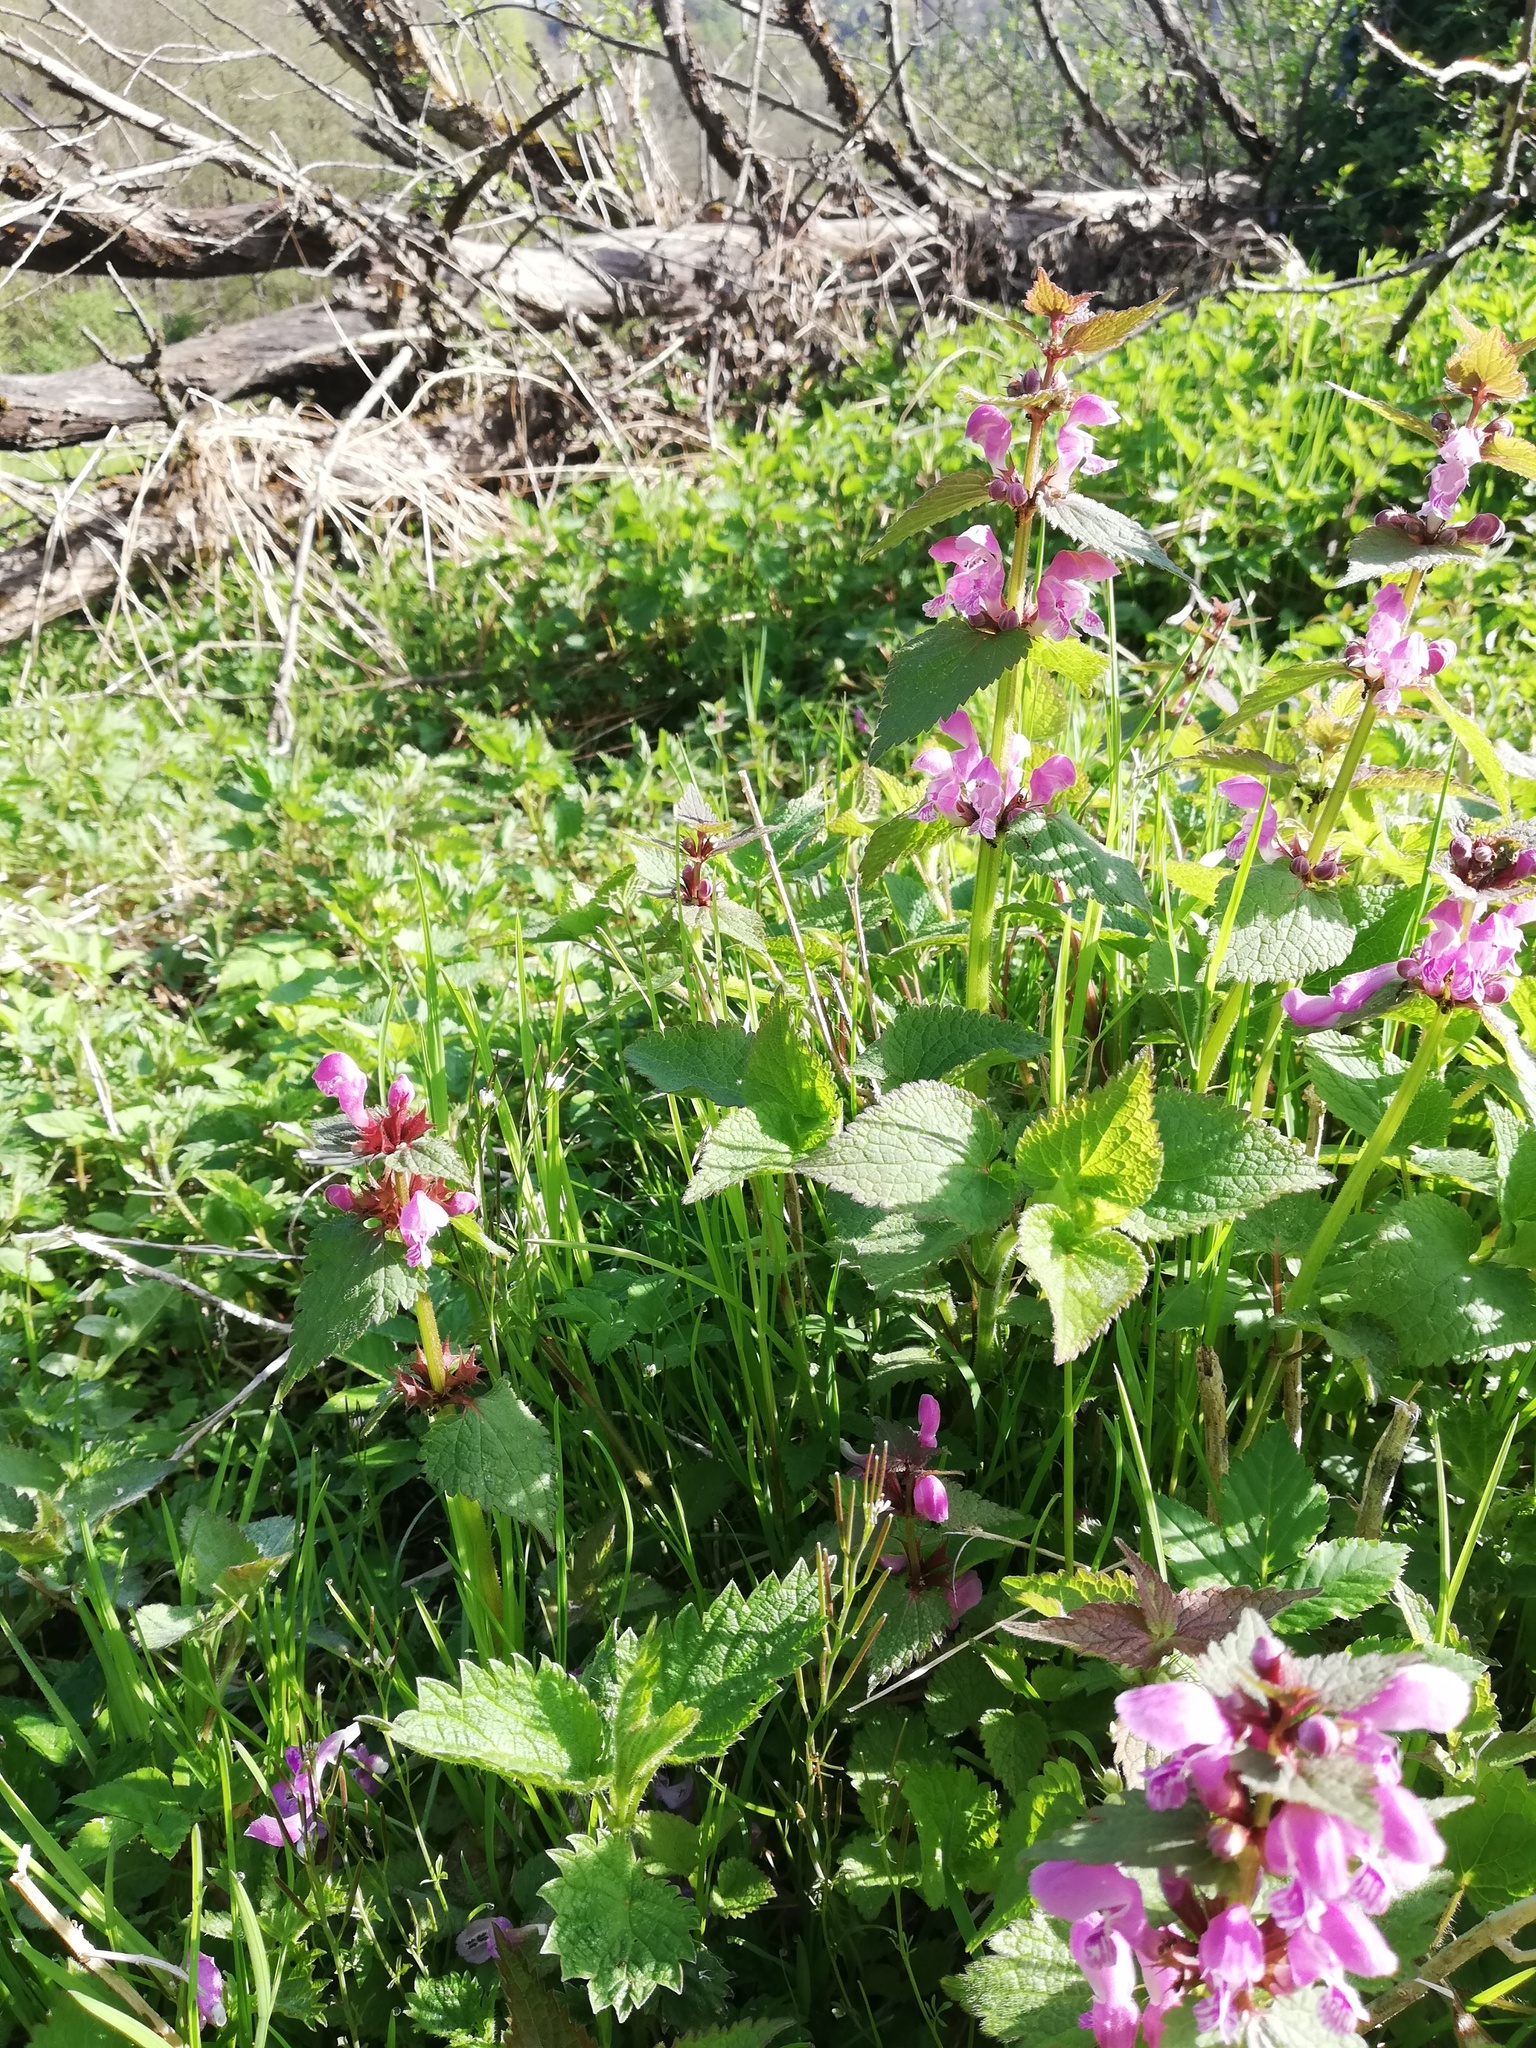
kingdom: Plantae
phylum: Tracheophyta
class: Magnoliopsida
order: Lamiales
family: Lamiaceae
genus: Lamium
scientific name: Lamium maculatum
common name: Spotted dead-nettle
